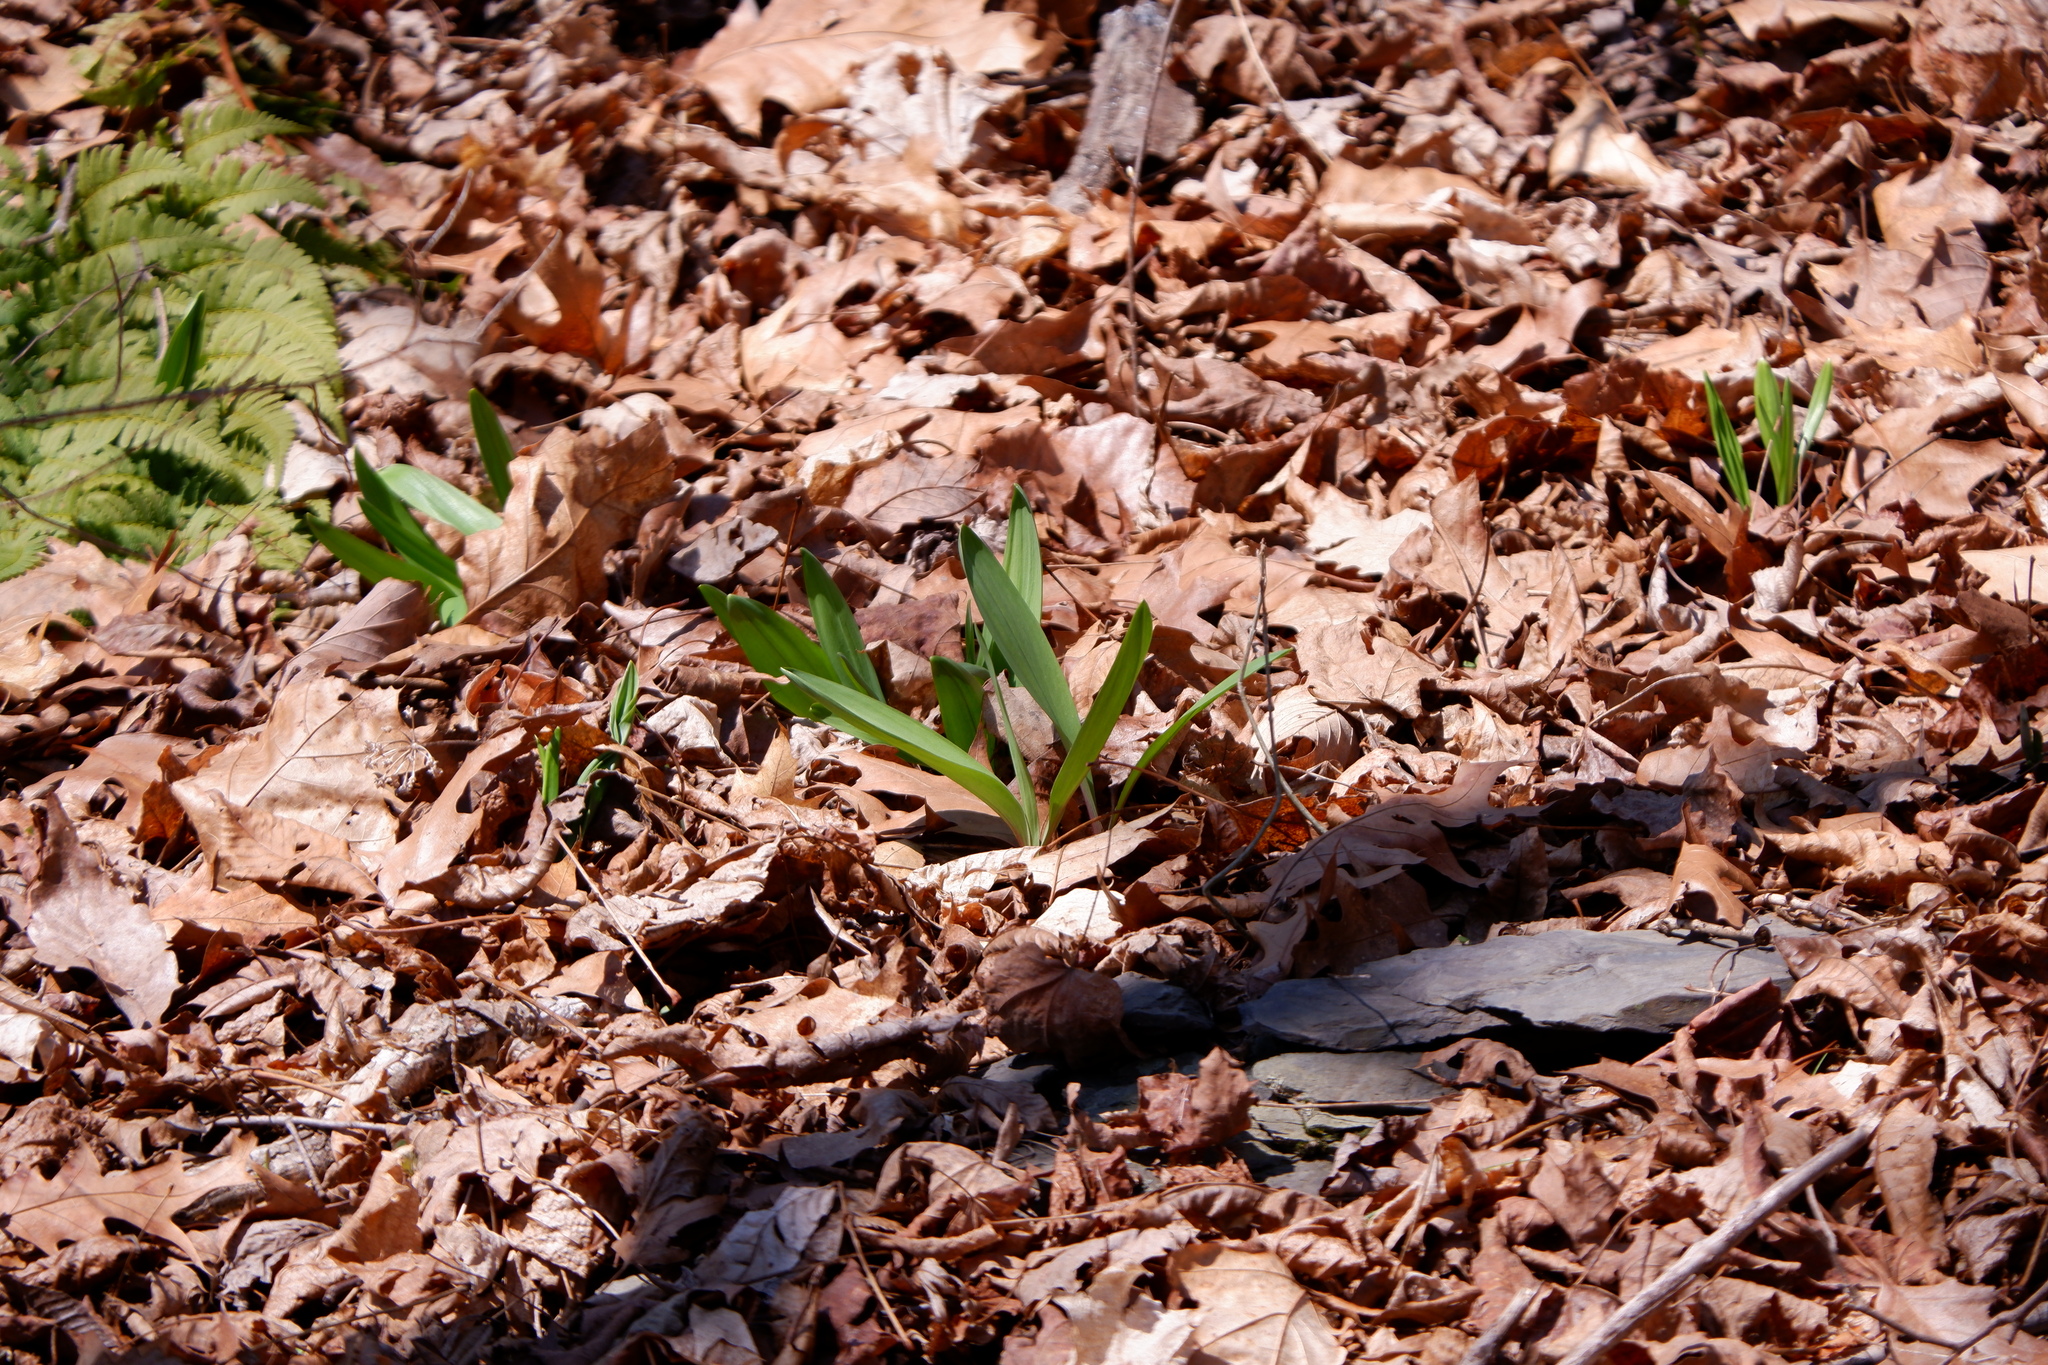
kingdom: Plantae
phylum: Tracheophyta
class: Liliopsida
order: Asparagales
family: Amaryllidaceae
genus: Allium
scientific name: Allium tricoccum
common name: Ramp
